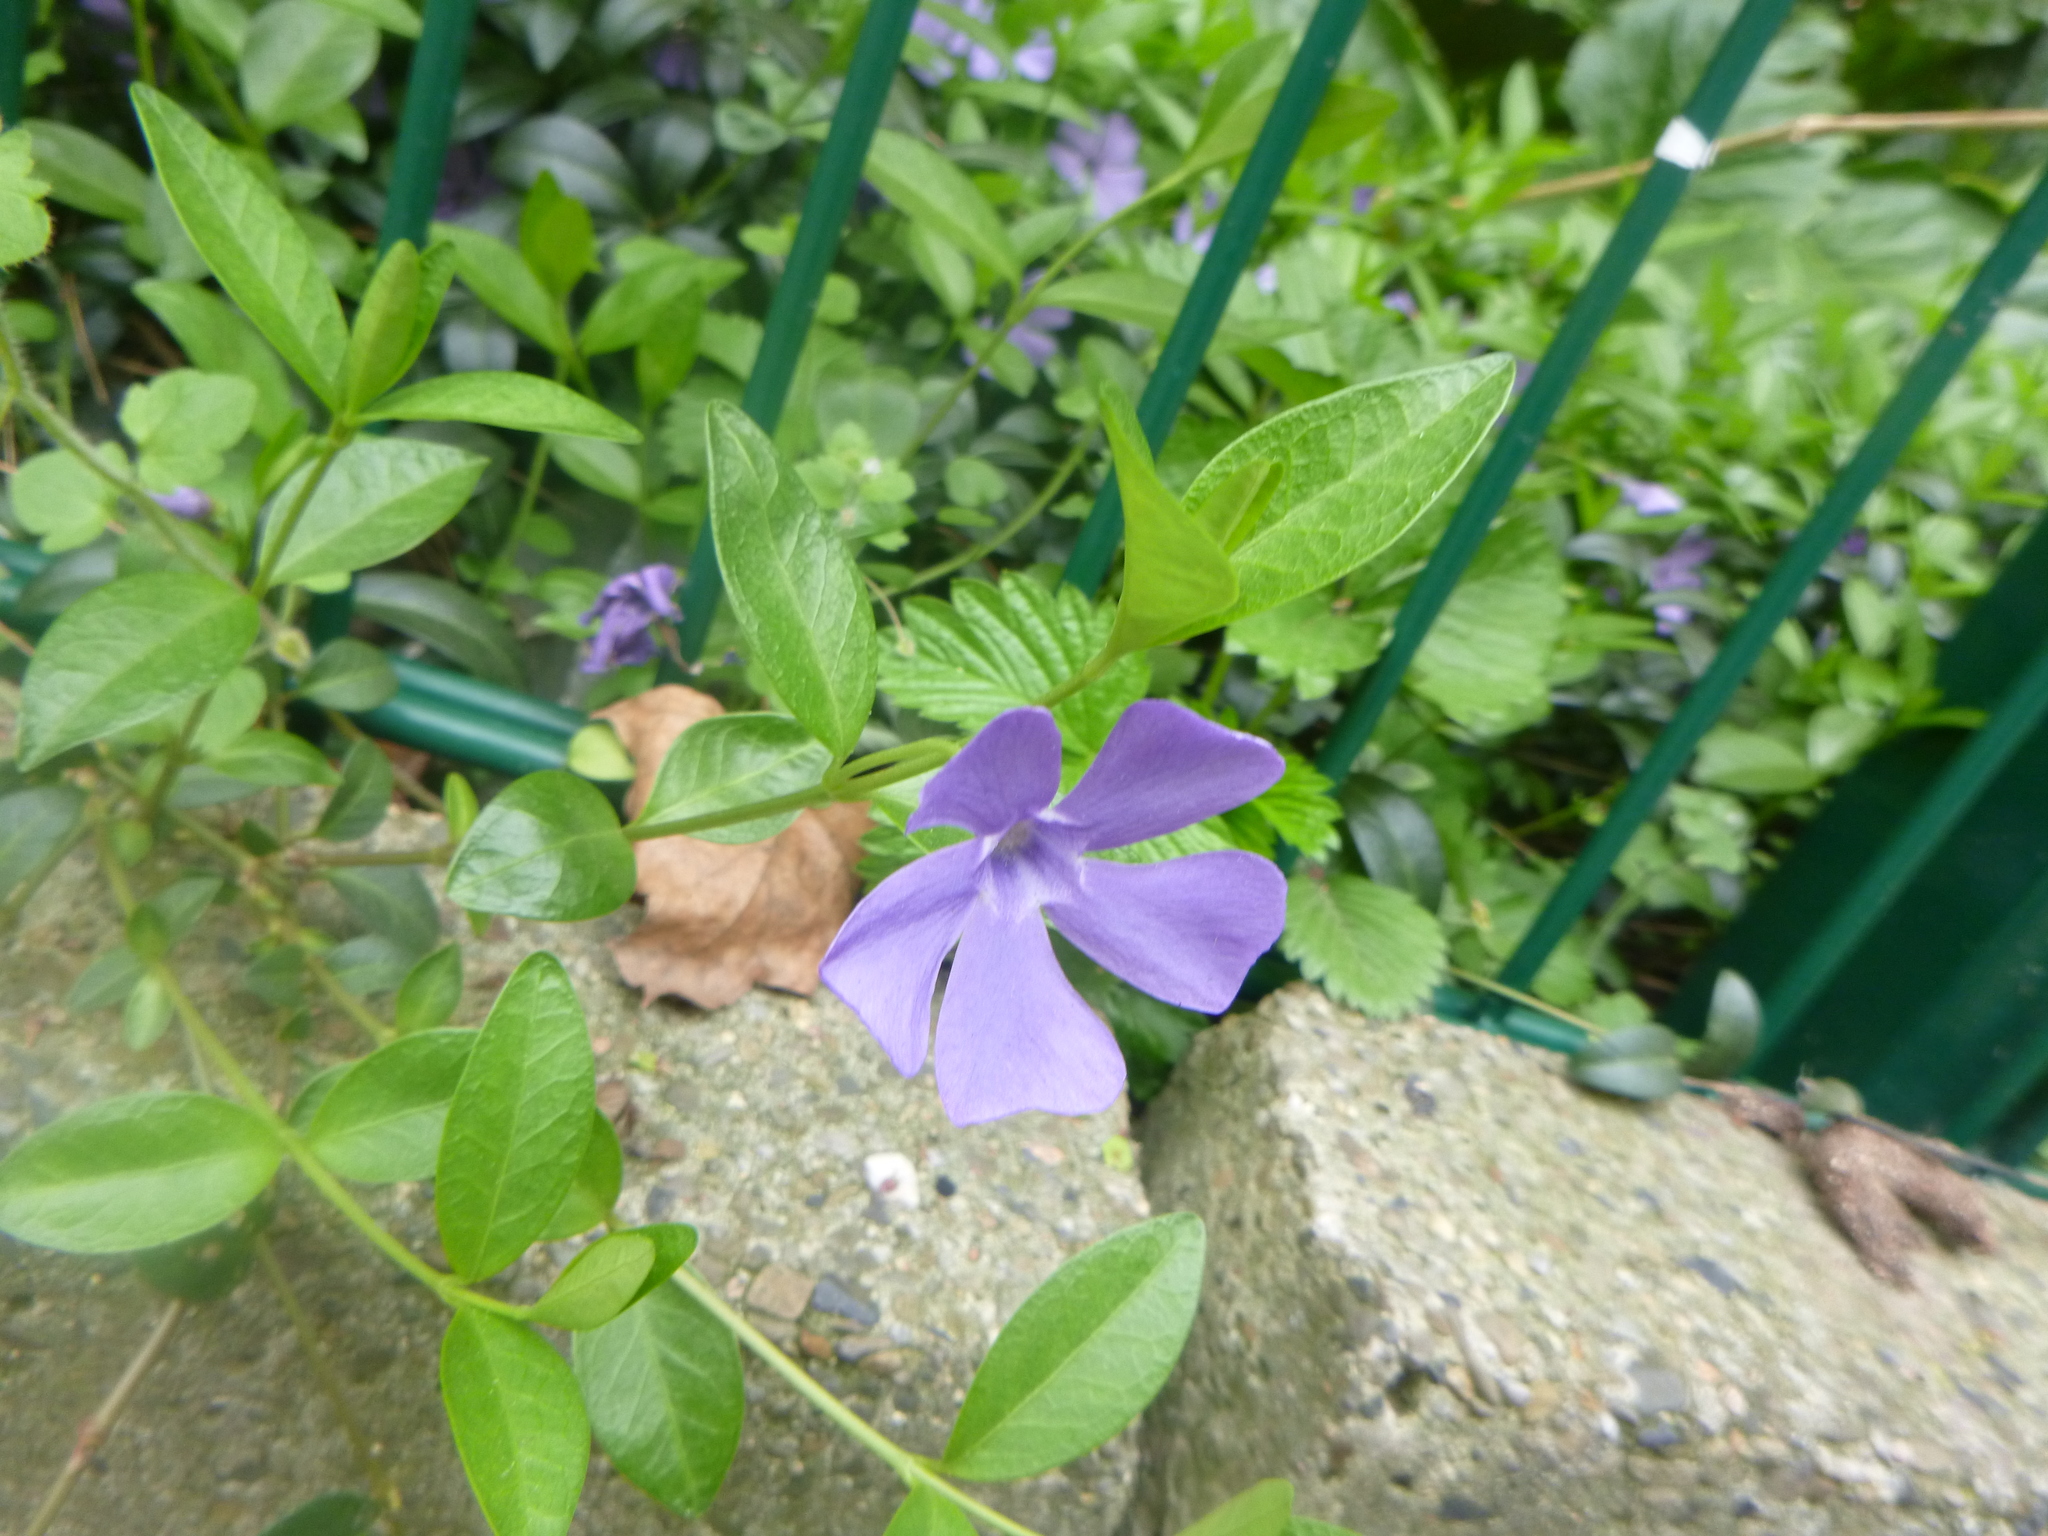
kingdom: Plantae
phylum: Tracheophyta
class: Magnoliopsida
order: Gentianales
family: Apocynaceae
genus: Vinca
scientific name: Vinca minor
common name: Lesser periwinkle
